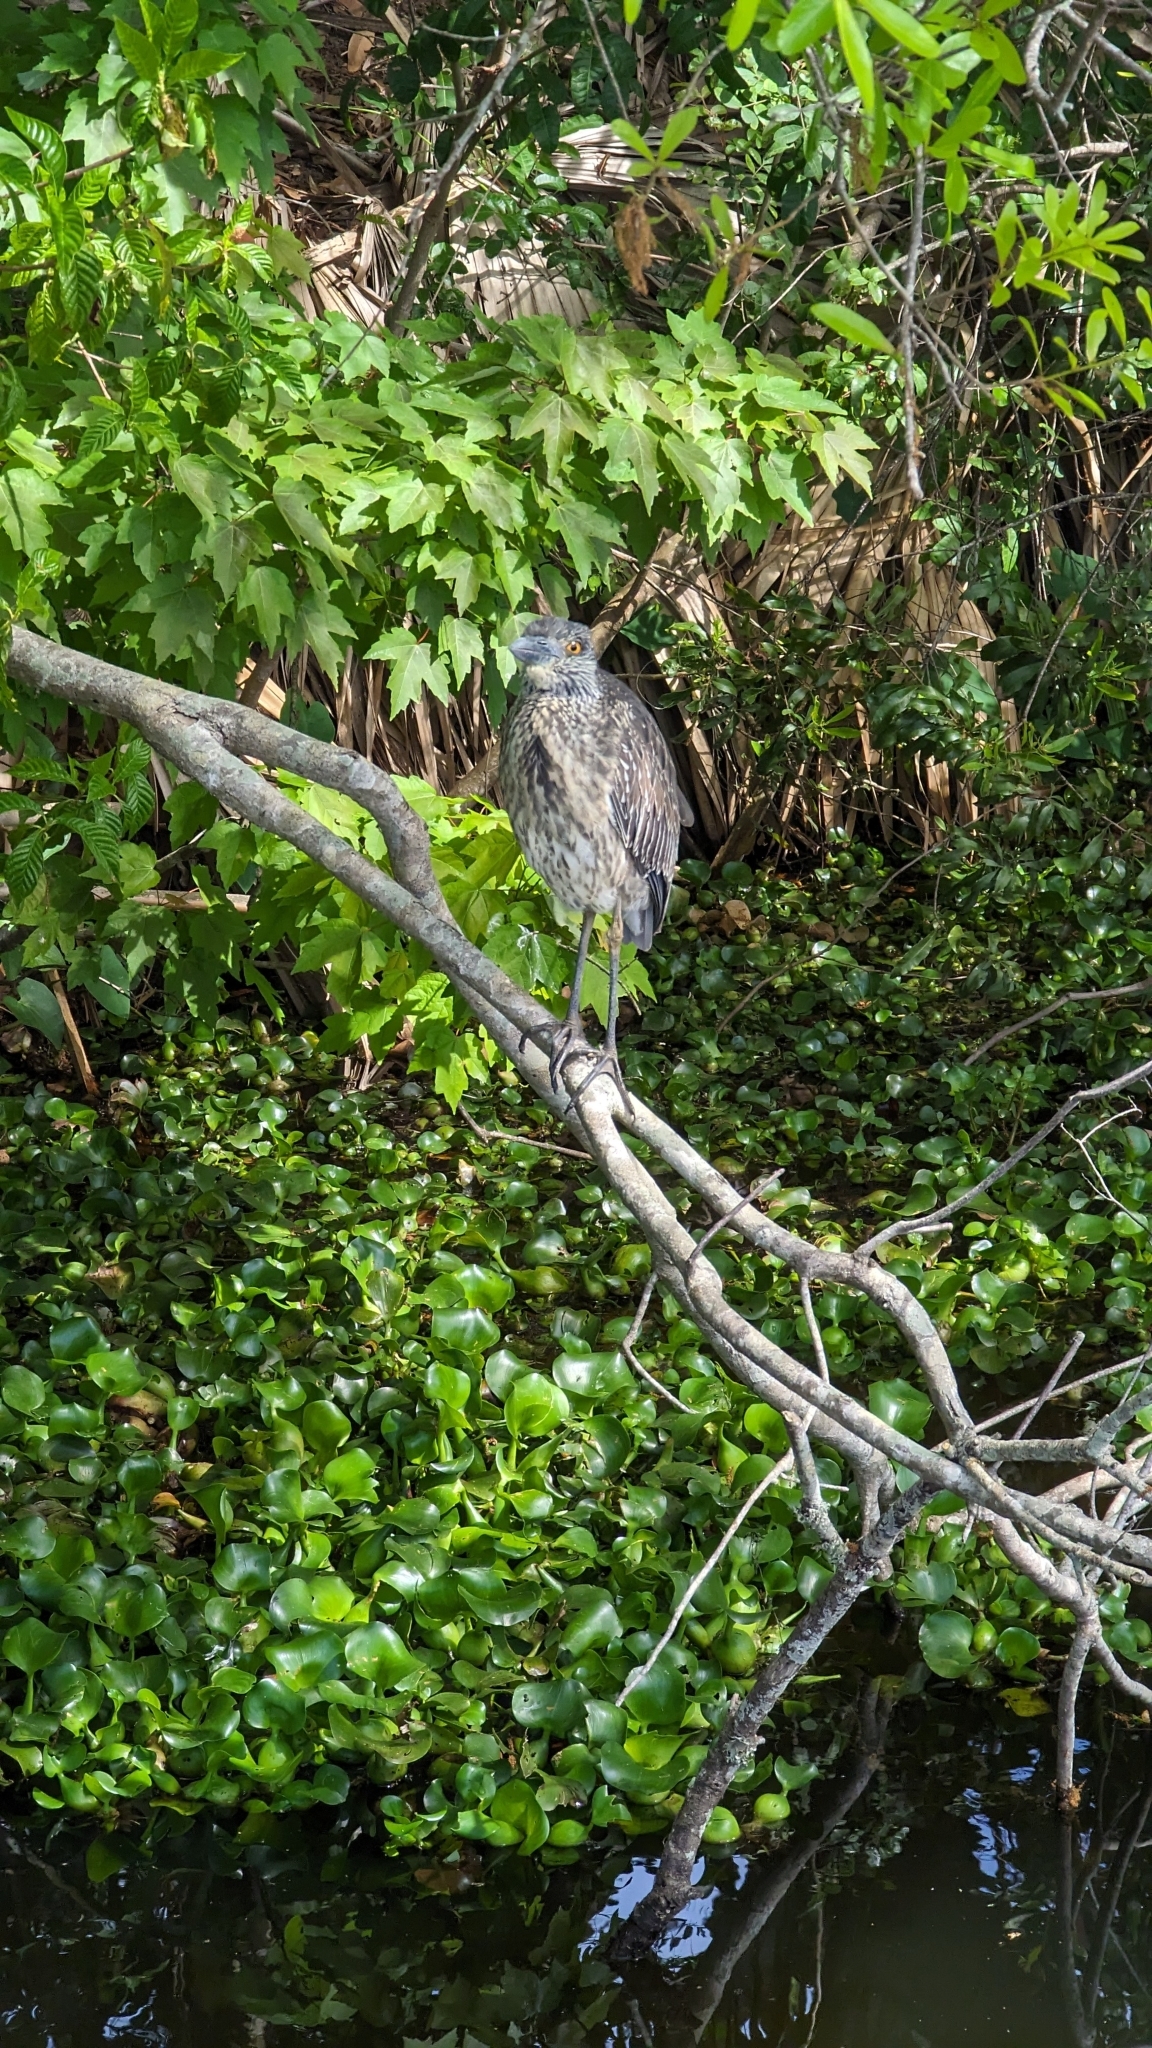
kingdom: Animalia
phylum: Chordata
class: Aves
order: Pelecaniformes
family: Ardeidae
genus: Nyctanassa
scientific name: Nyctanassa violacea
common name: Yellow-crowned night heron
